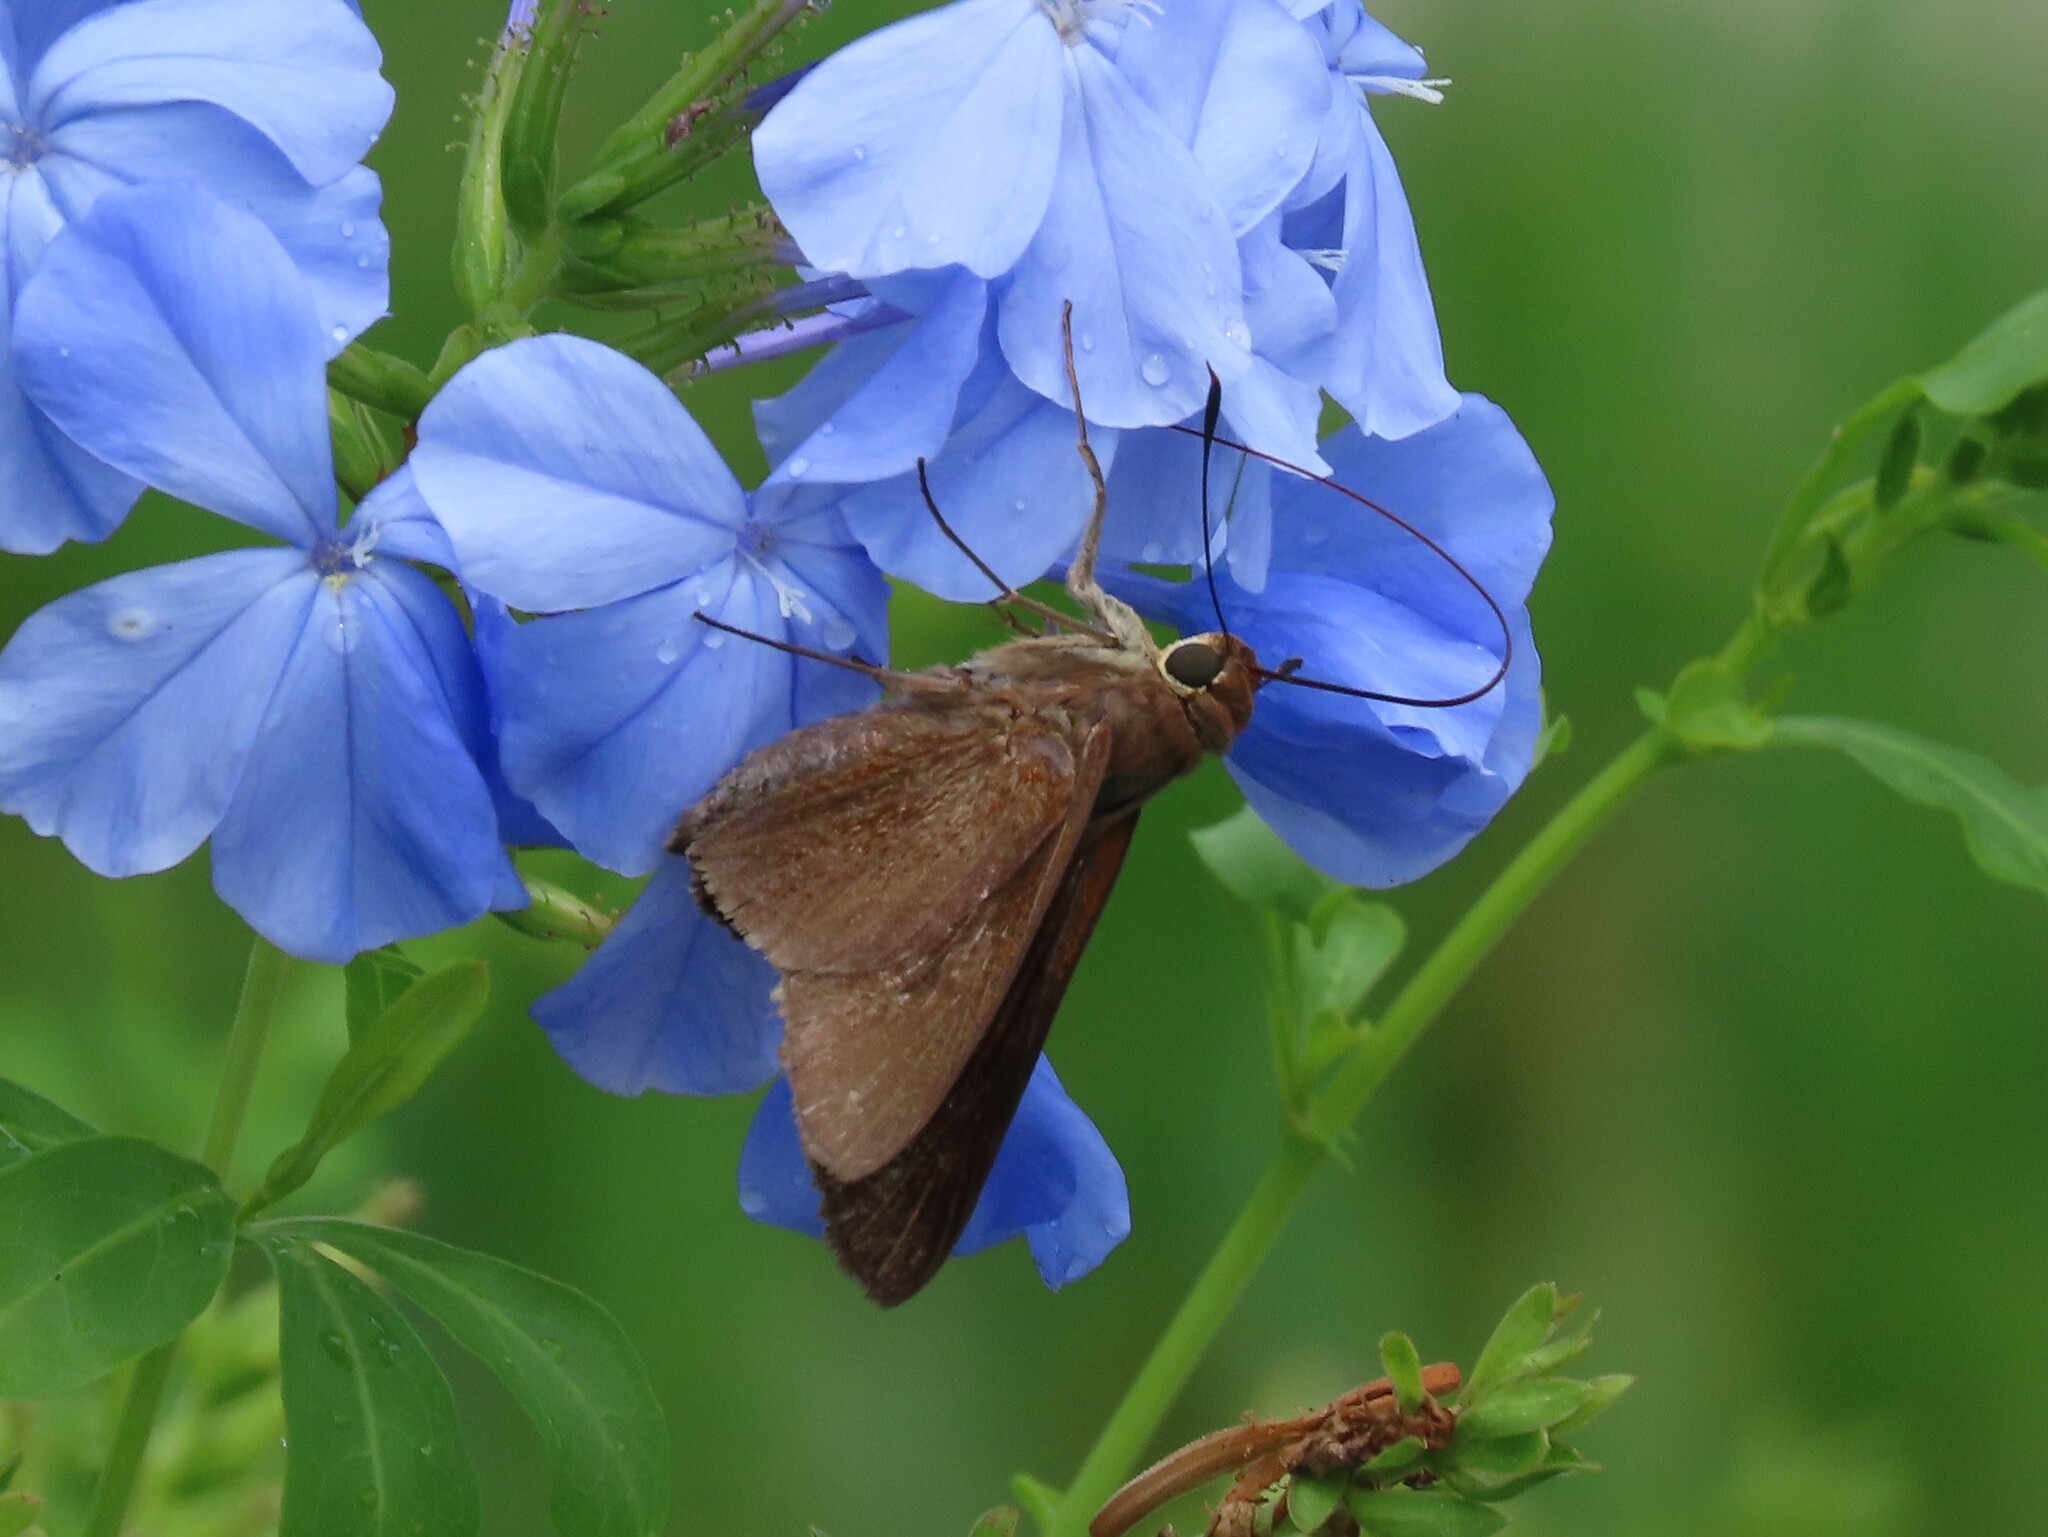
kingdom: Animalia
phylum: Arthropoda
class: Insecta
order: Lepidoptera
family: Hesperiidae
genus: Asbolis
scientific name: Asbolis capucinus
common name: Monk skipper
